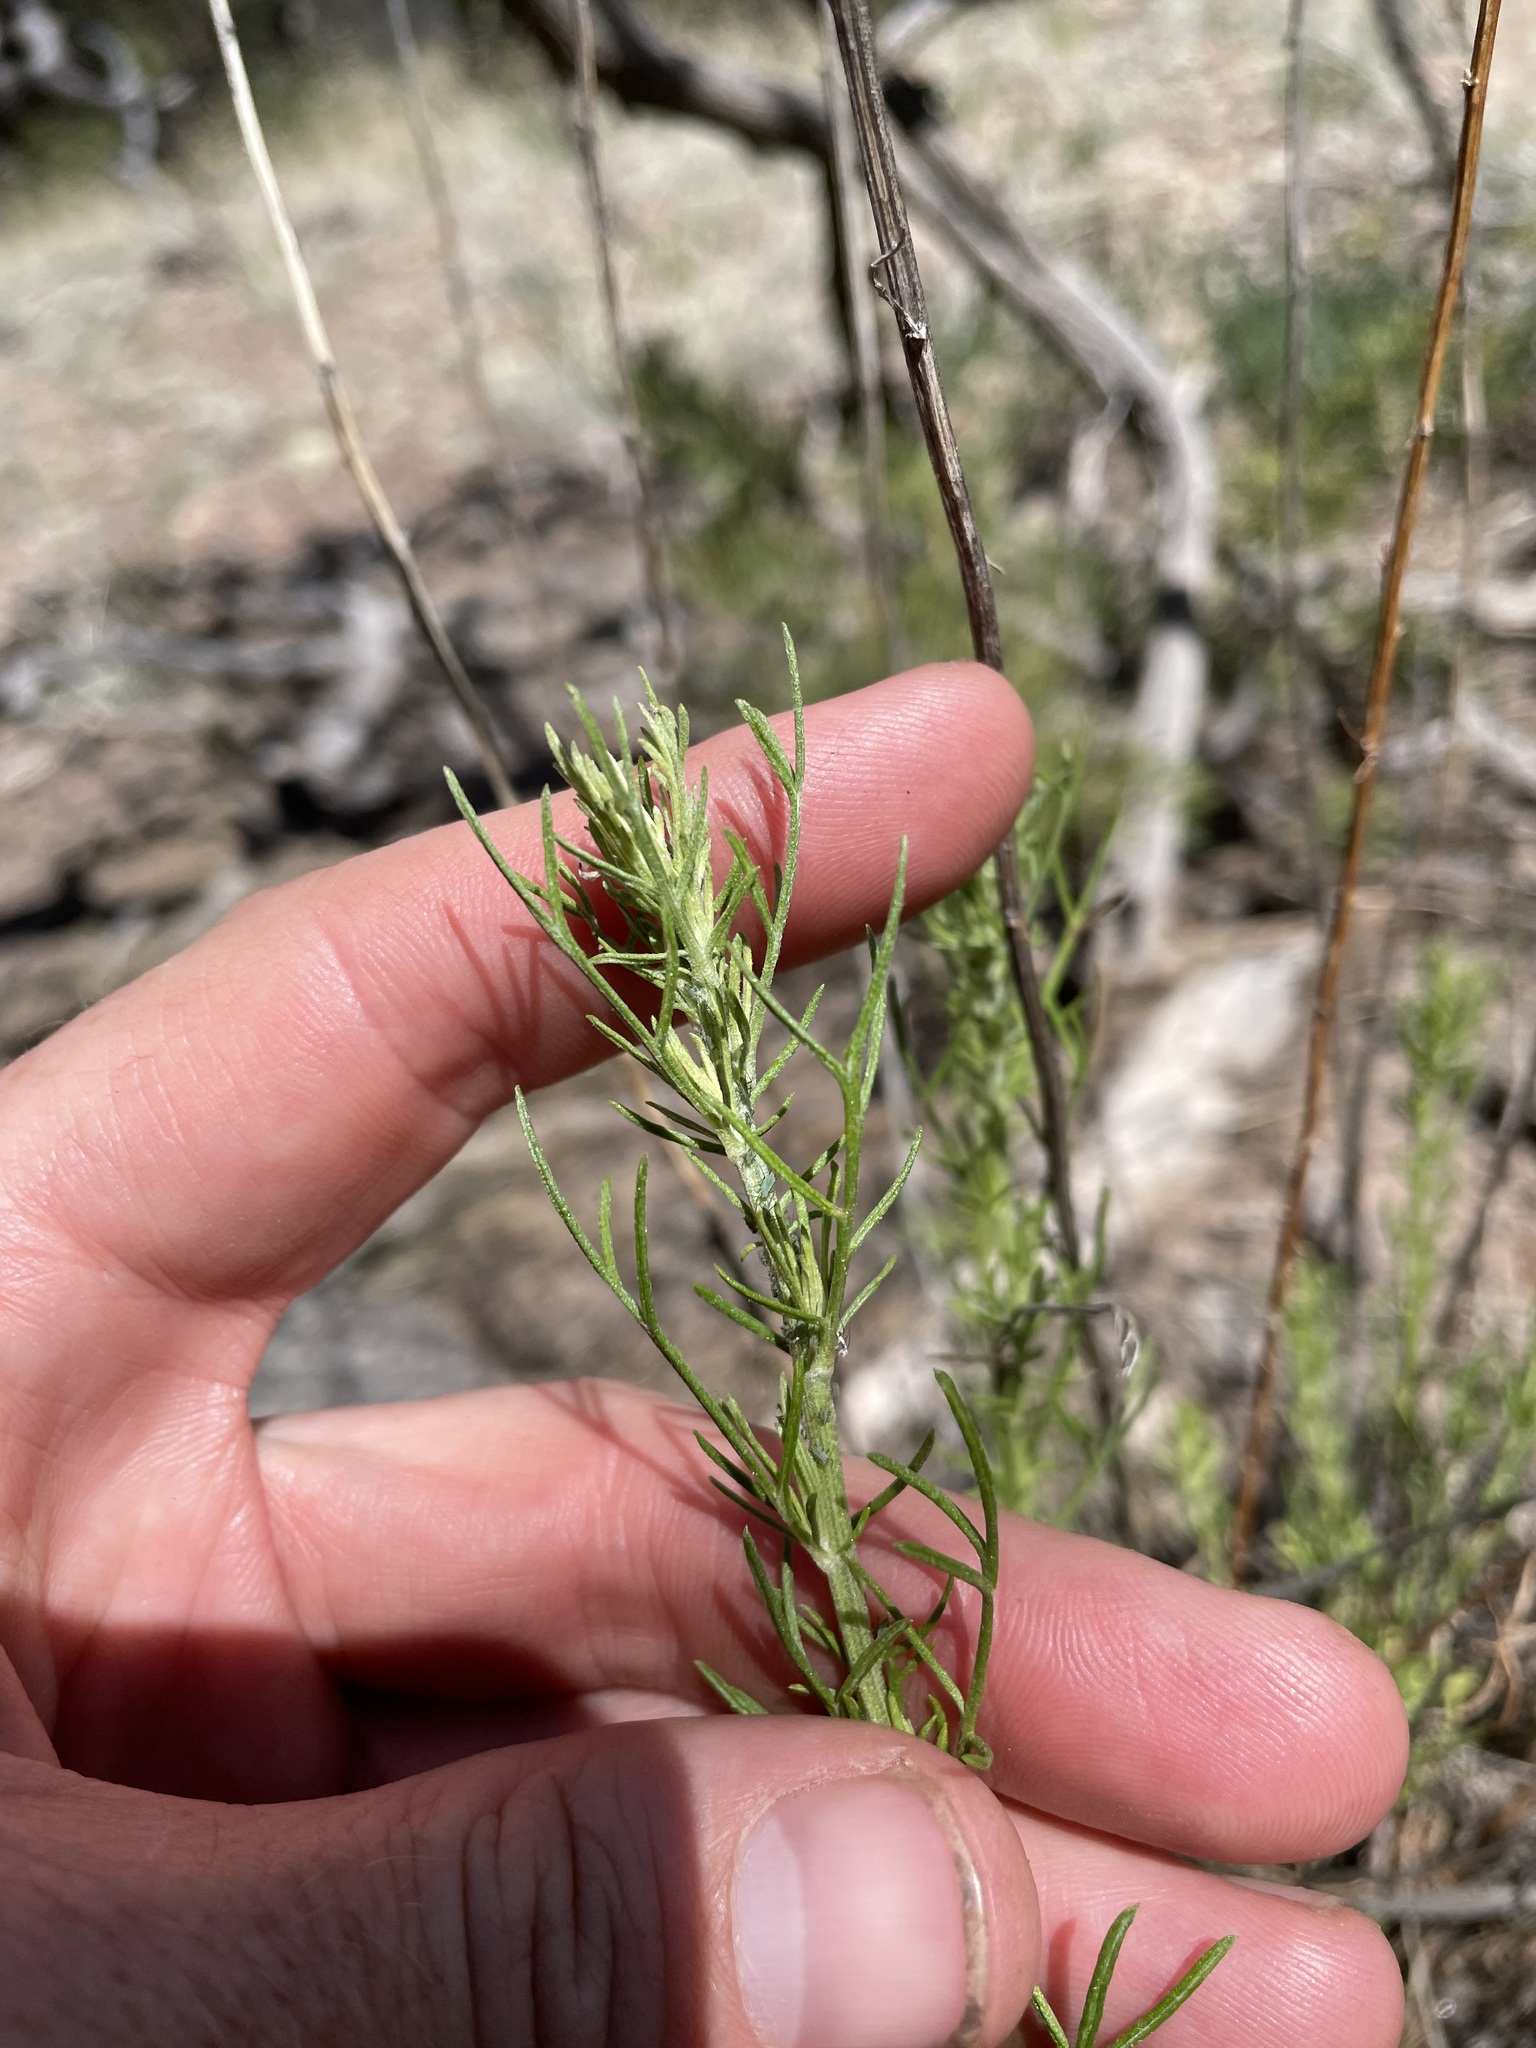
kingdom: Plantae
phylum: Tracheophyta
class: Magnoliopsida
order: Asterales
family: Asteraceae
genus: Artemisia
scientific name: Artemisia carruthii
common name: Carruth wormwood
